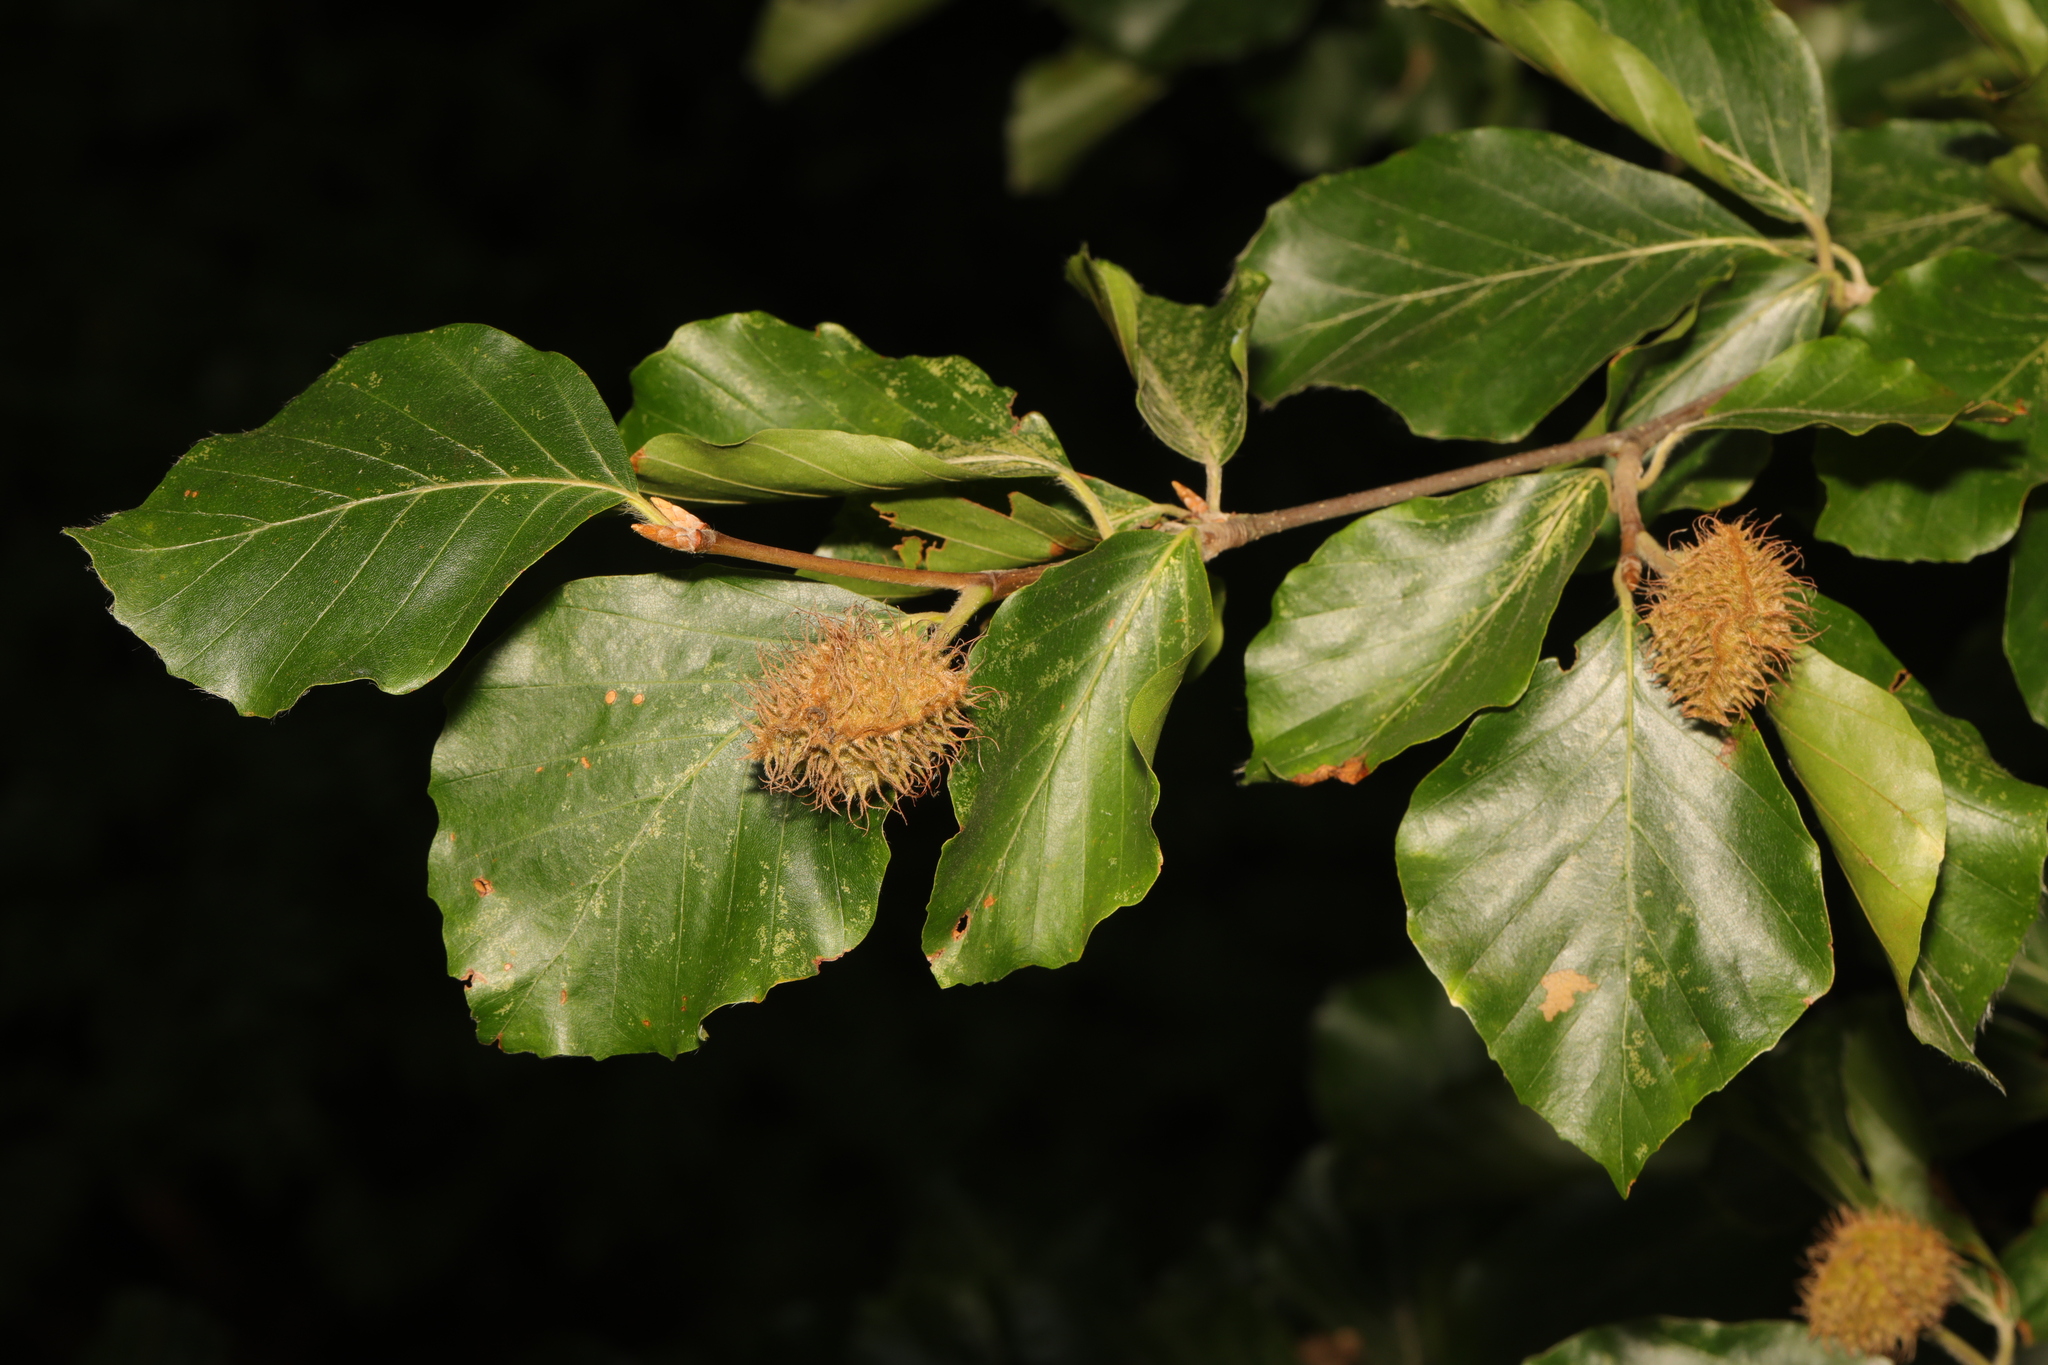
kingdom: Plantae
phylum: Tracheophyta
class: Magnoliopsida
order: Fagales
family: Fagaceae
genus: Fagus
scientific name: Fagus sylvatica
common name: Beech
